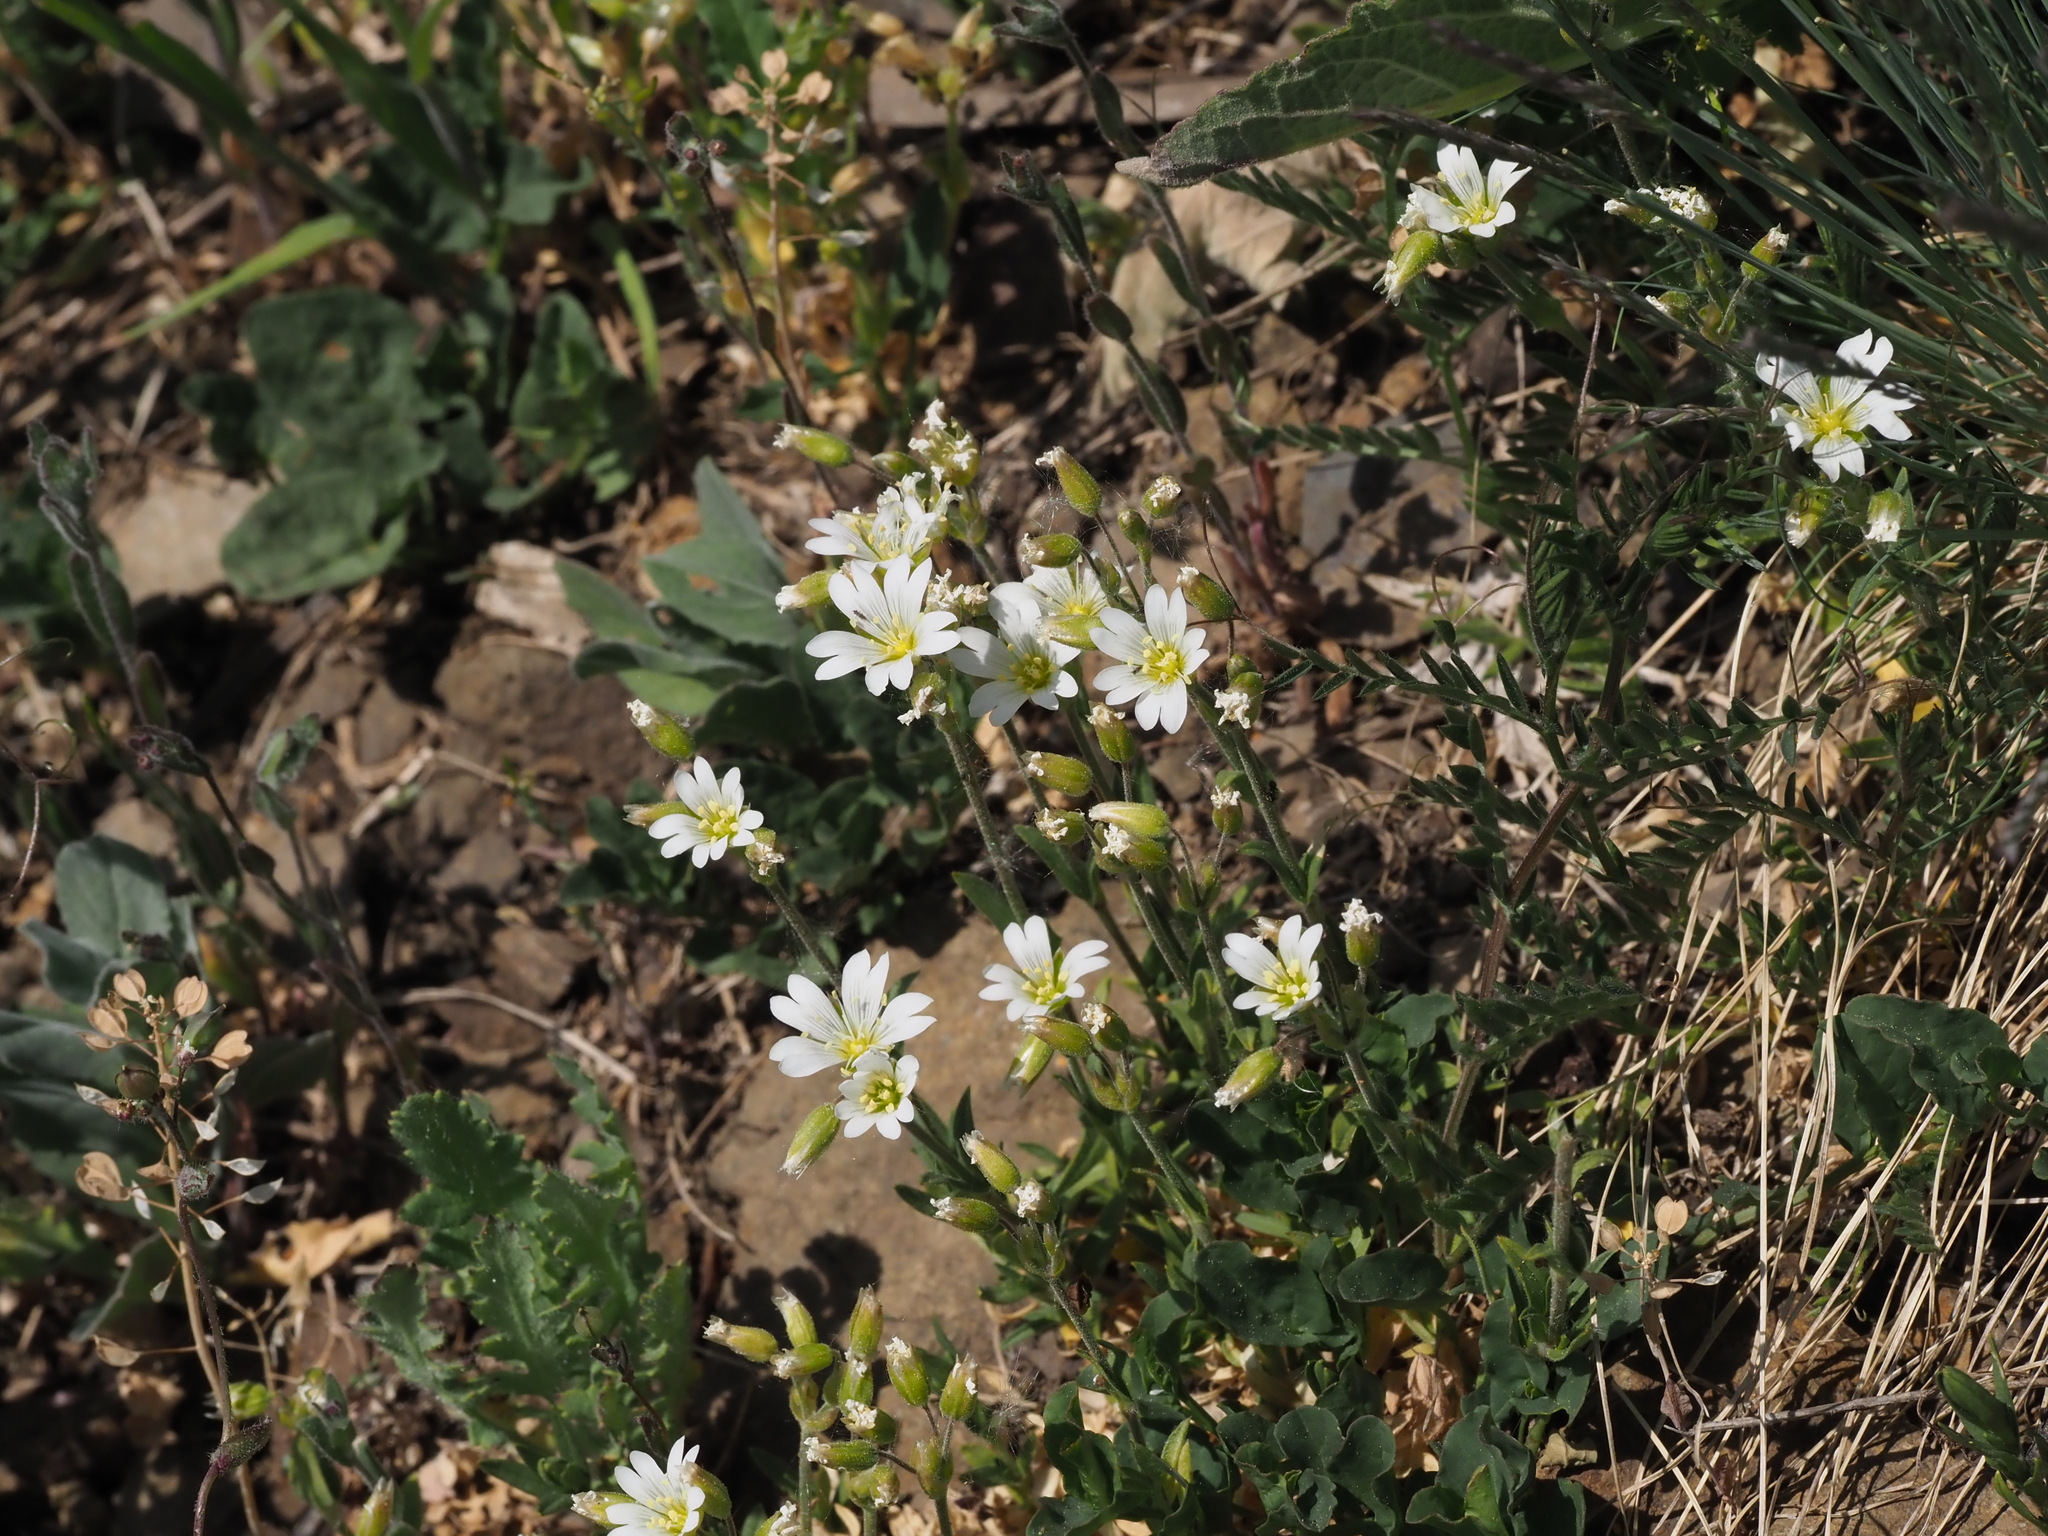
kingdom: Plantae
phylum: Tracheophyta
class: Magnoliopsida
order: Caryophyllales
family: Caryophyllaceae
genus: Cerastium
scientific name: Cerastium arvense
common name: Field mouse-ear
